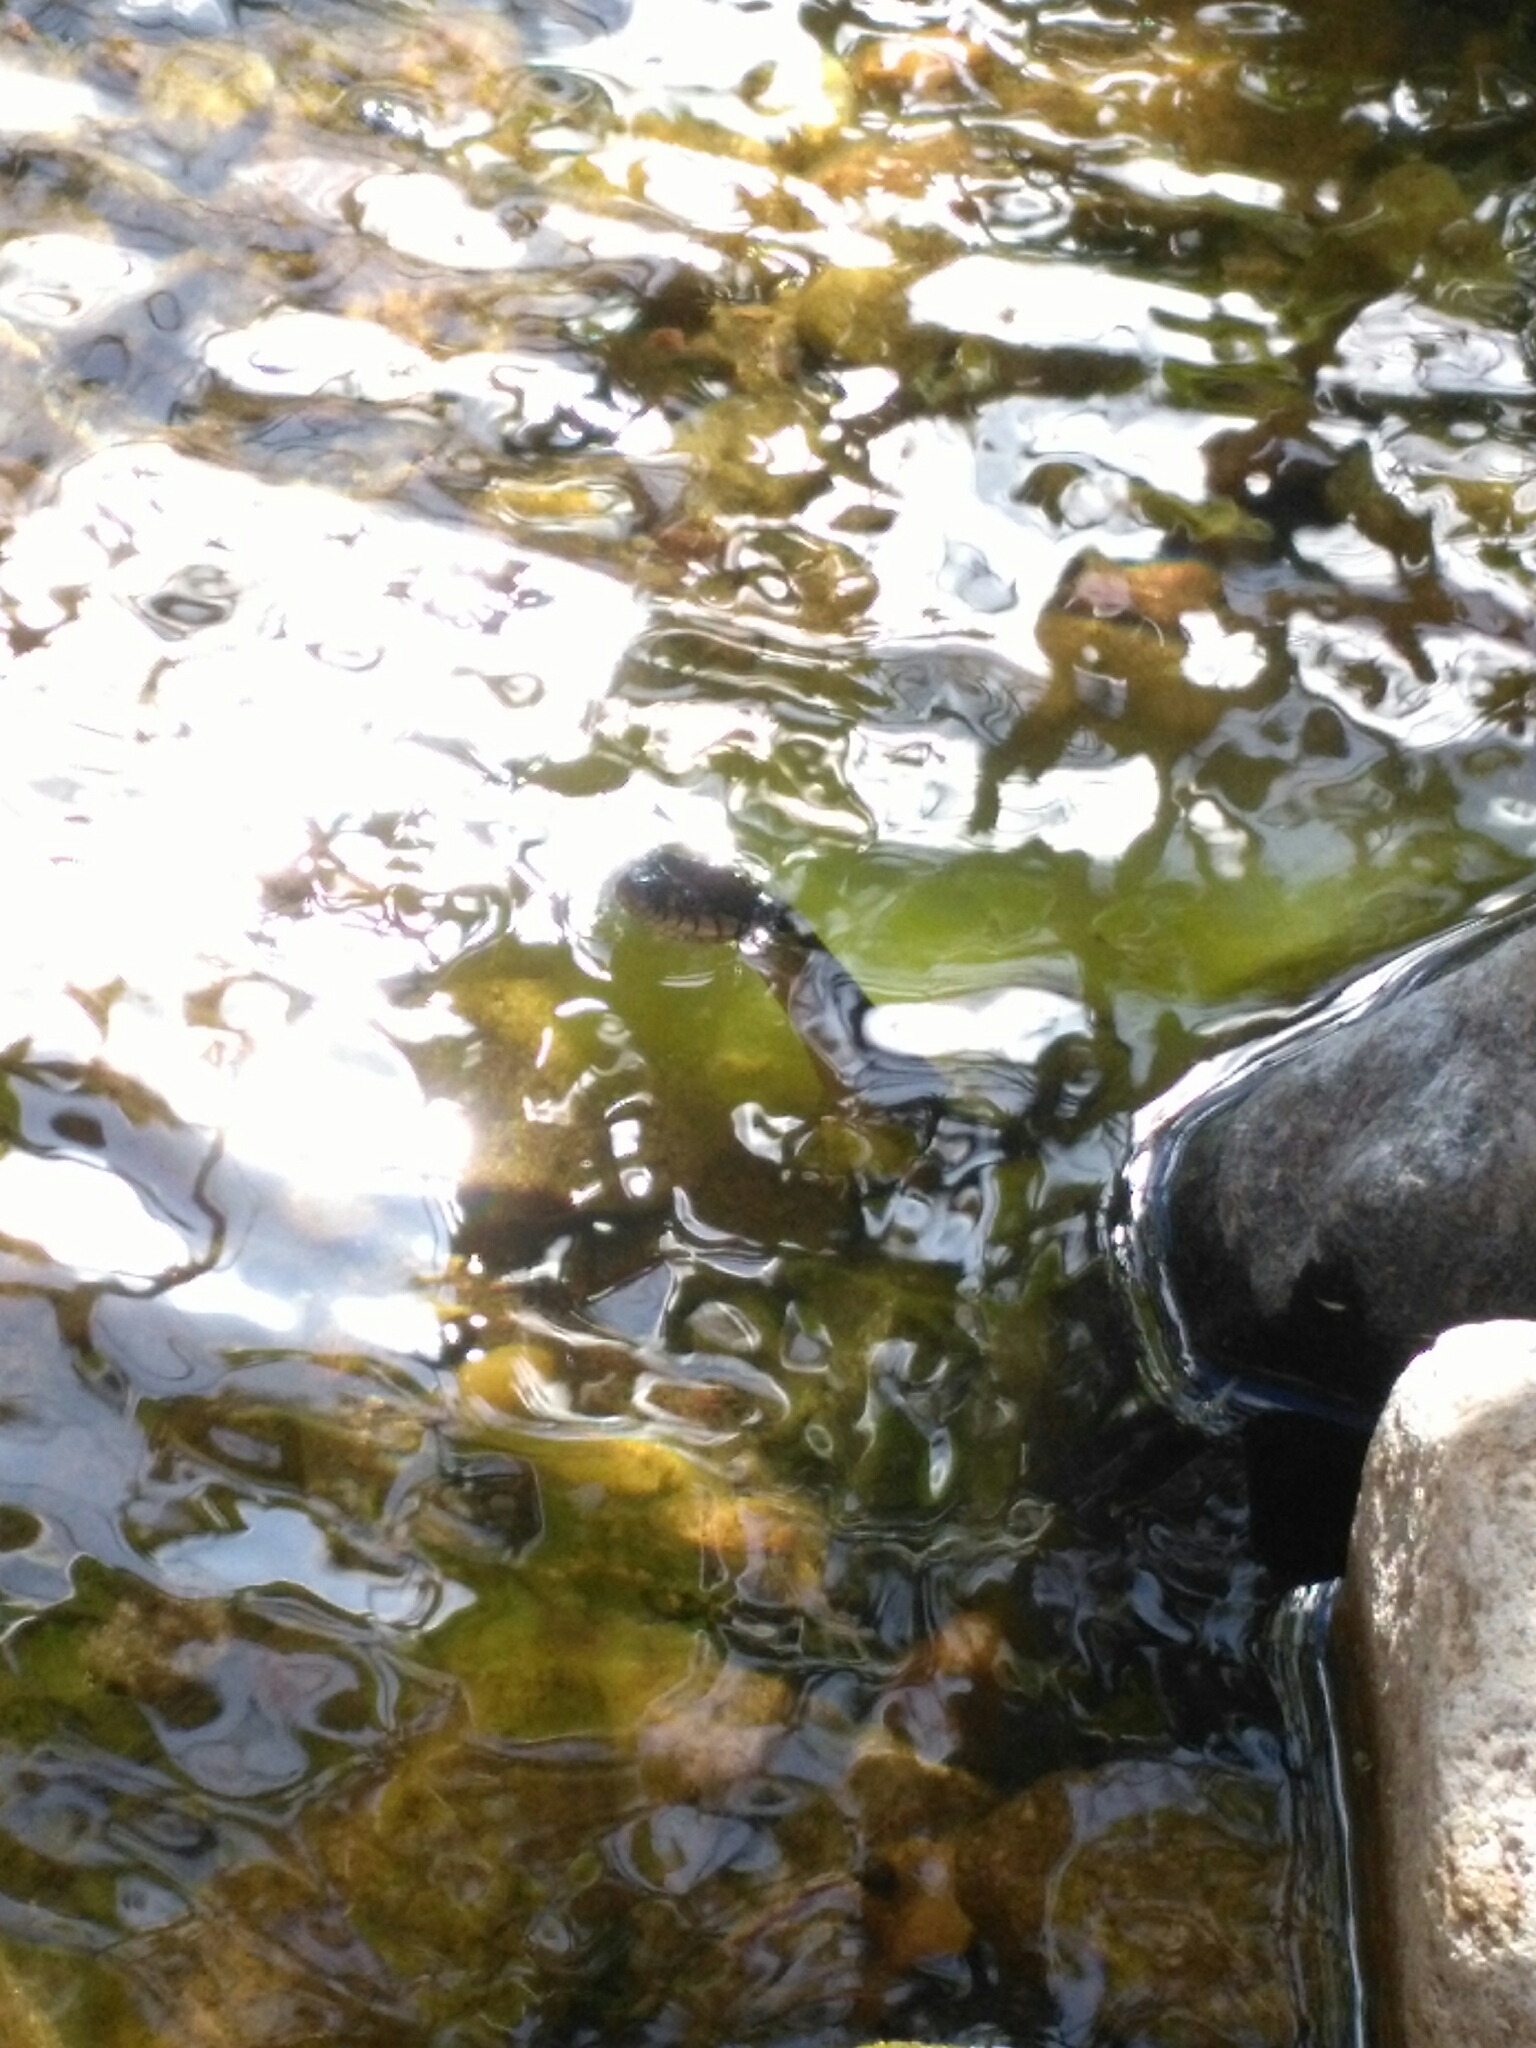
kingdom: Animalia
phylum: Chordata
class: Squamata
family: Colubridae
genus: Thamnophis
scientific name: Thamnophis hammondii
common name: Two-striped garter snake
